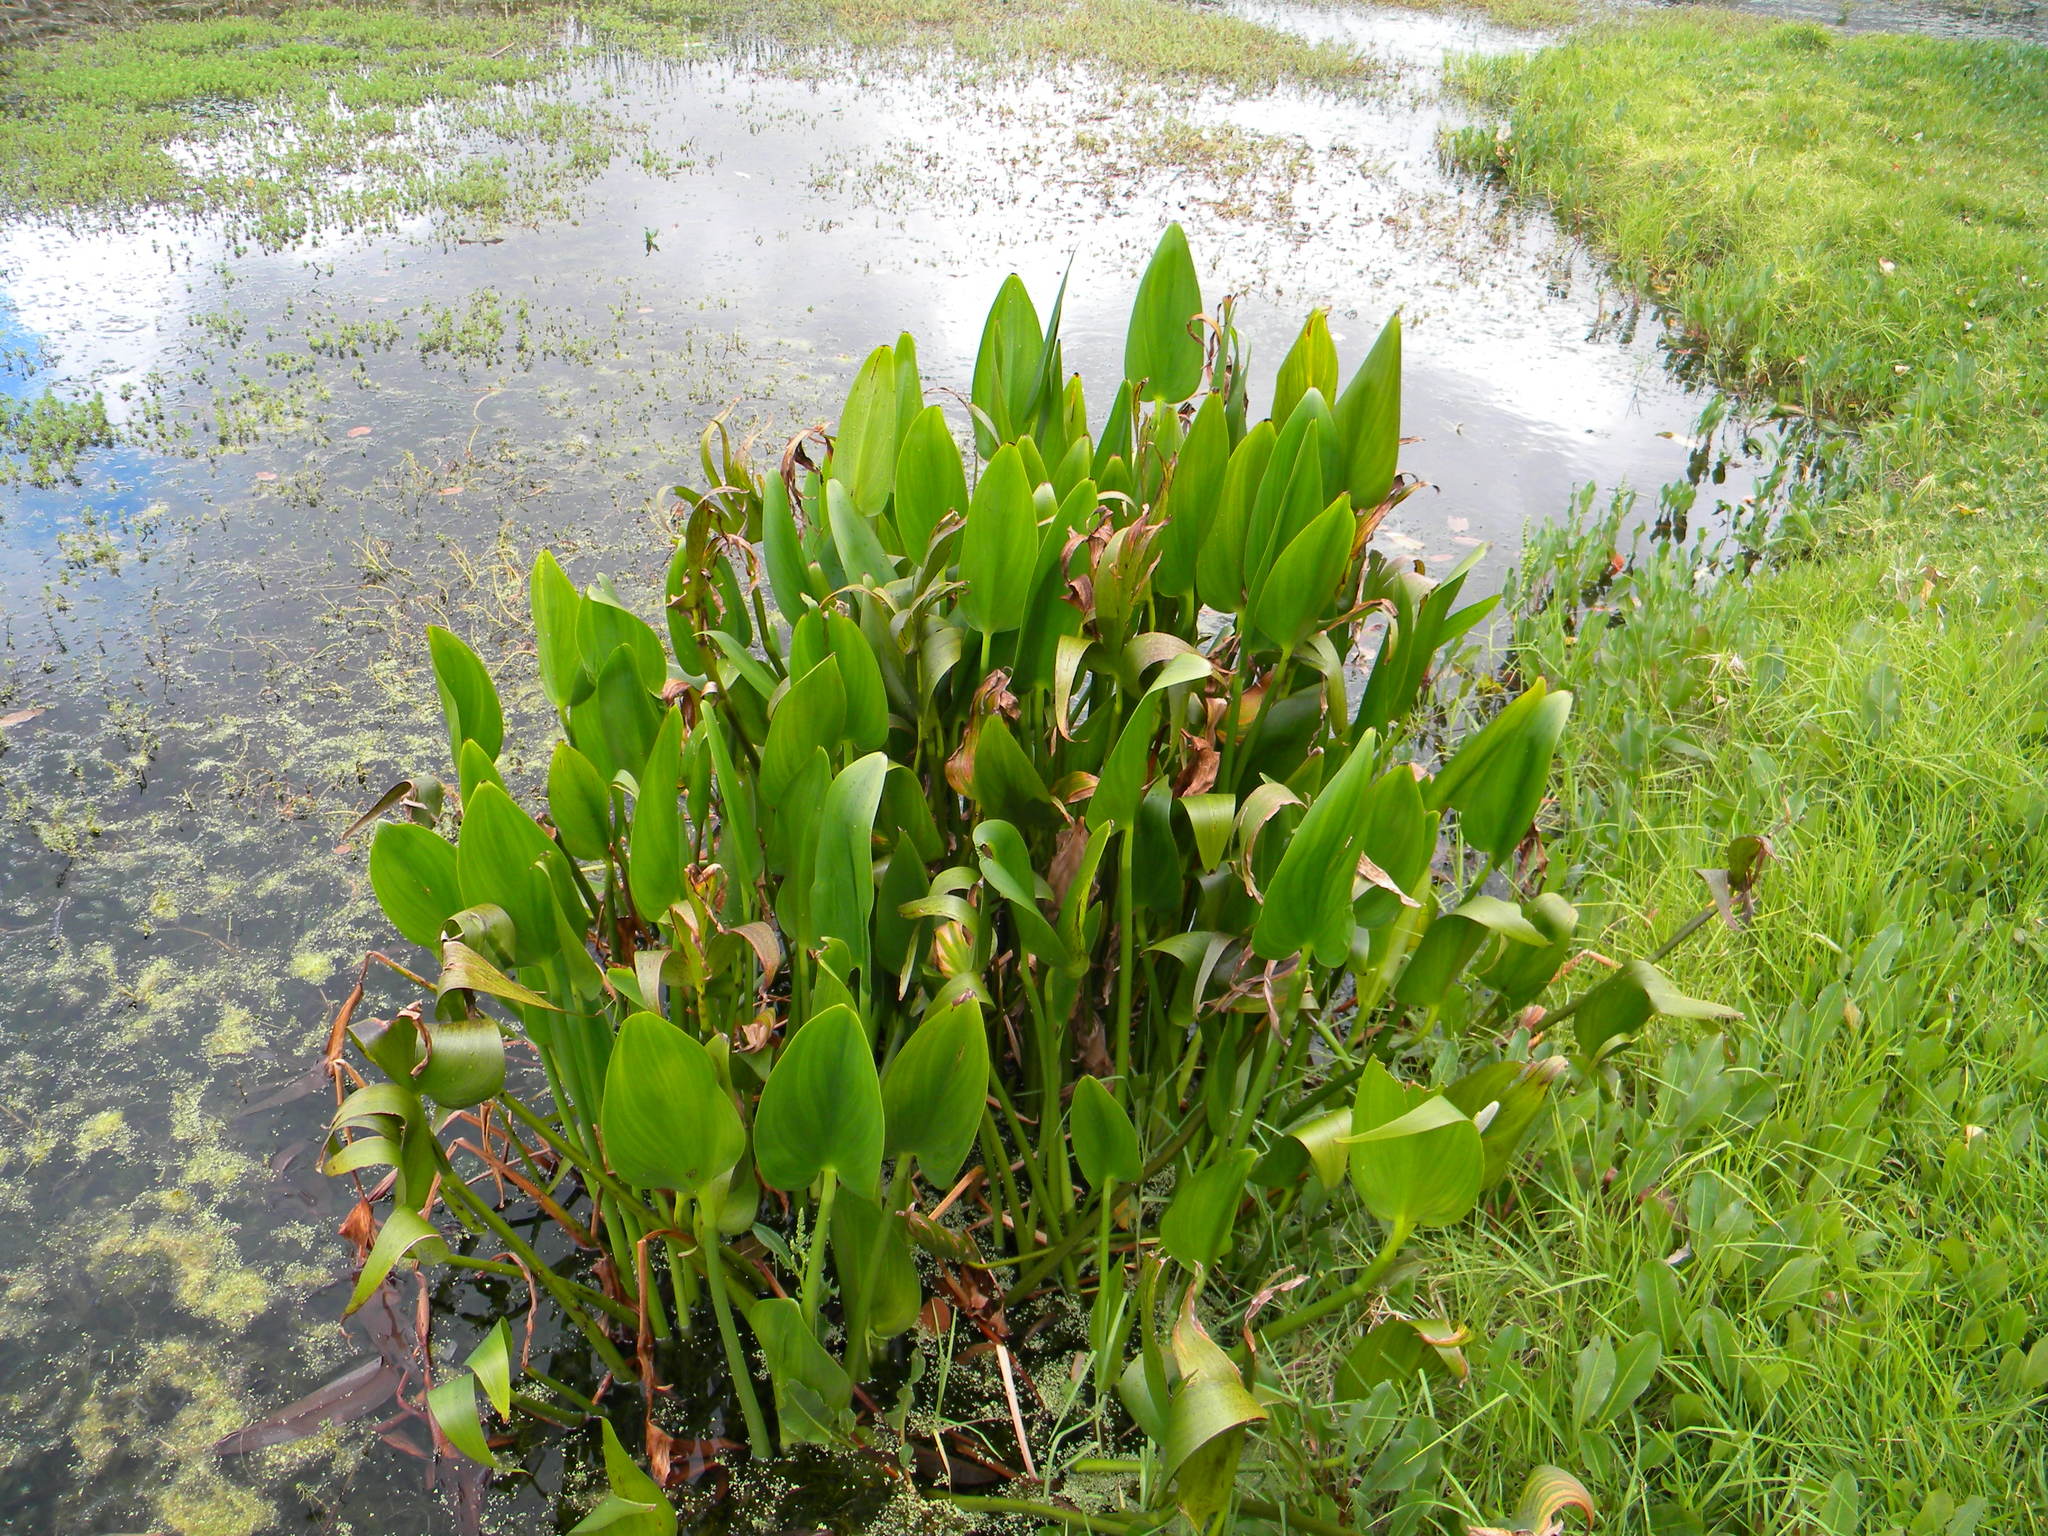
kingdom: Plantae
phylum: Tracheophyta
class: Liliopsida
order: Commelinales
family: Pontederiaceae
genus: Pontederia
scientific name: Pontederia cordata
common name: Pickerelweed
